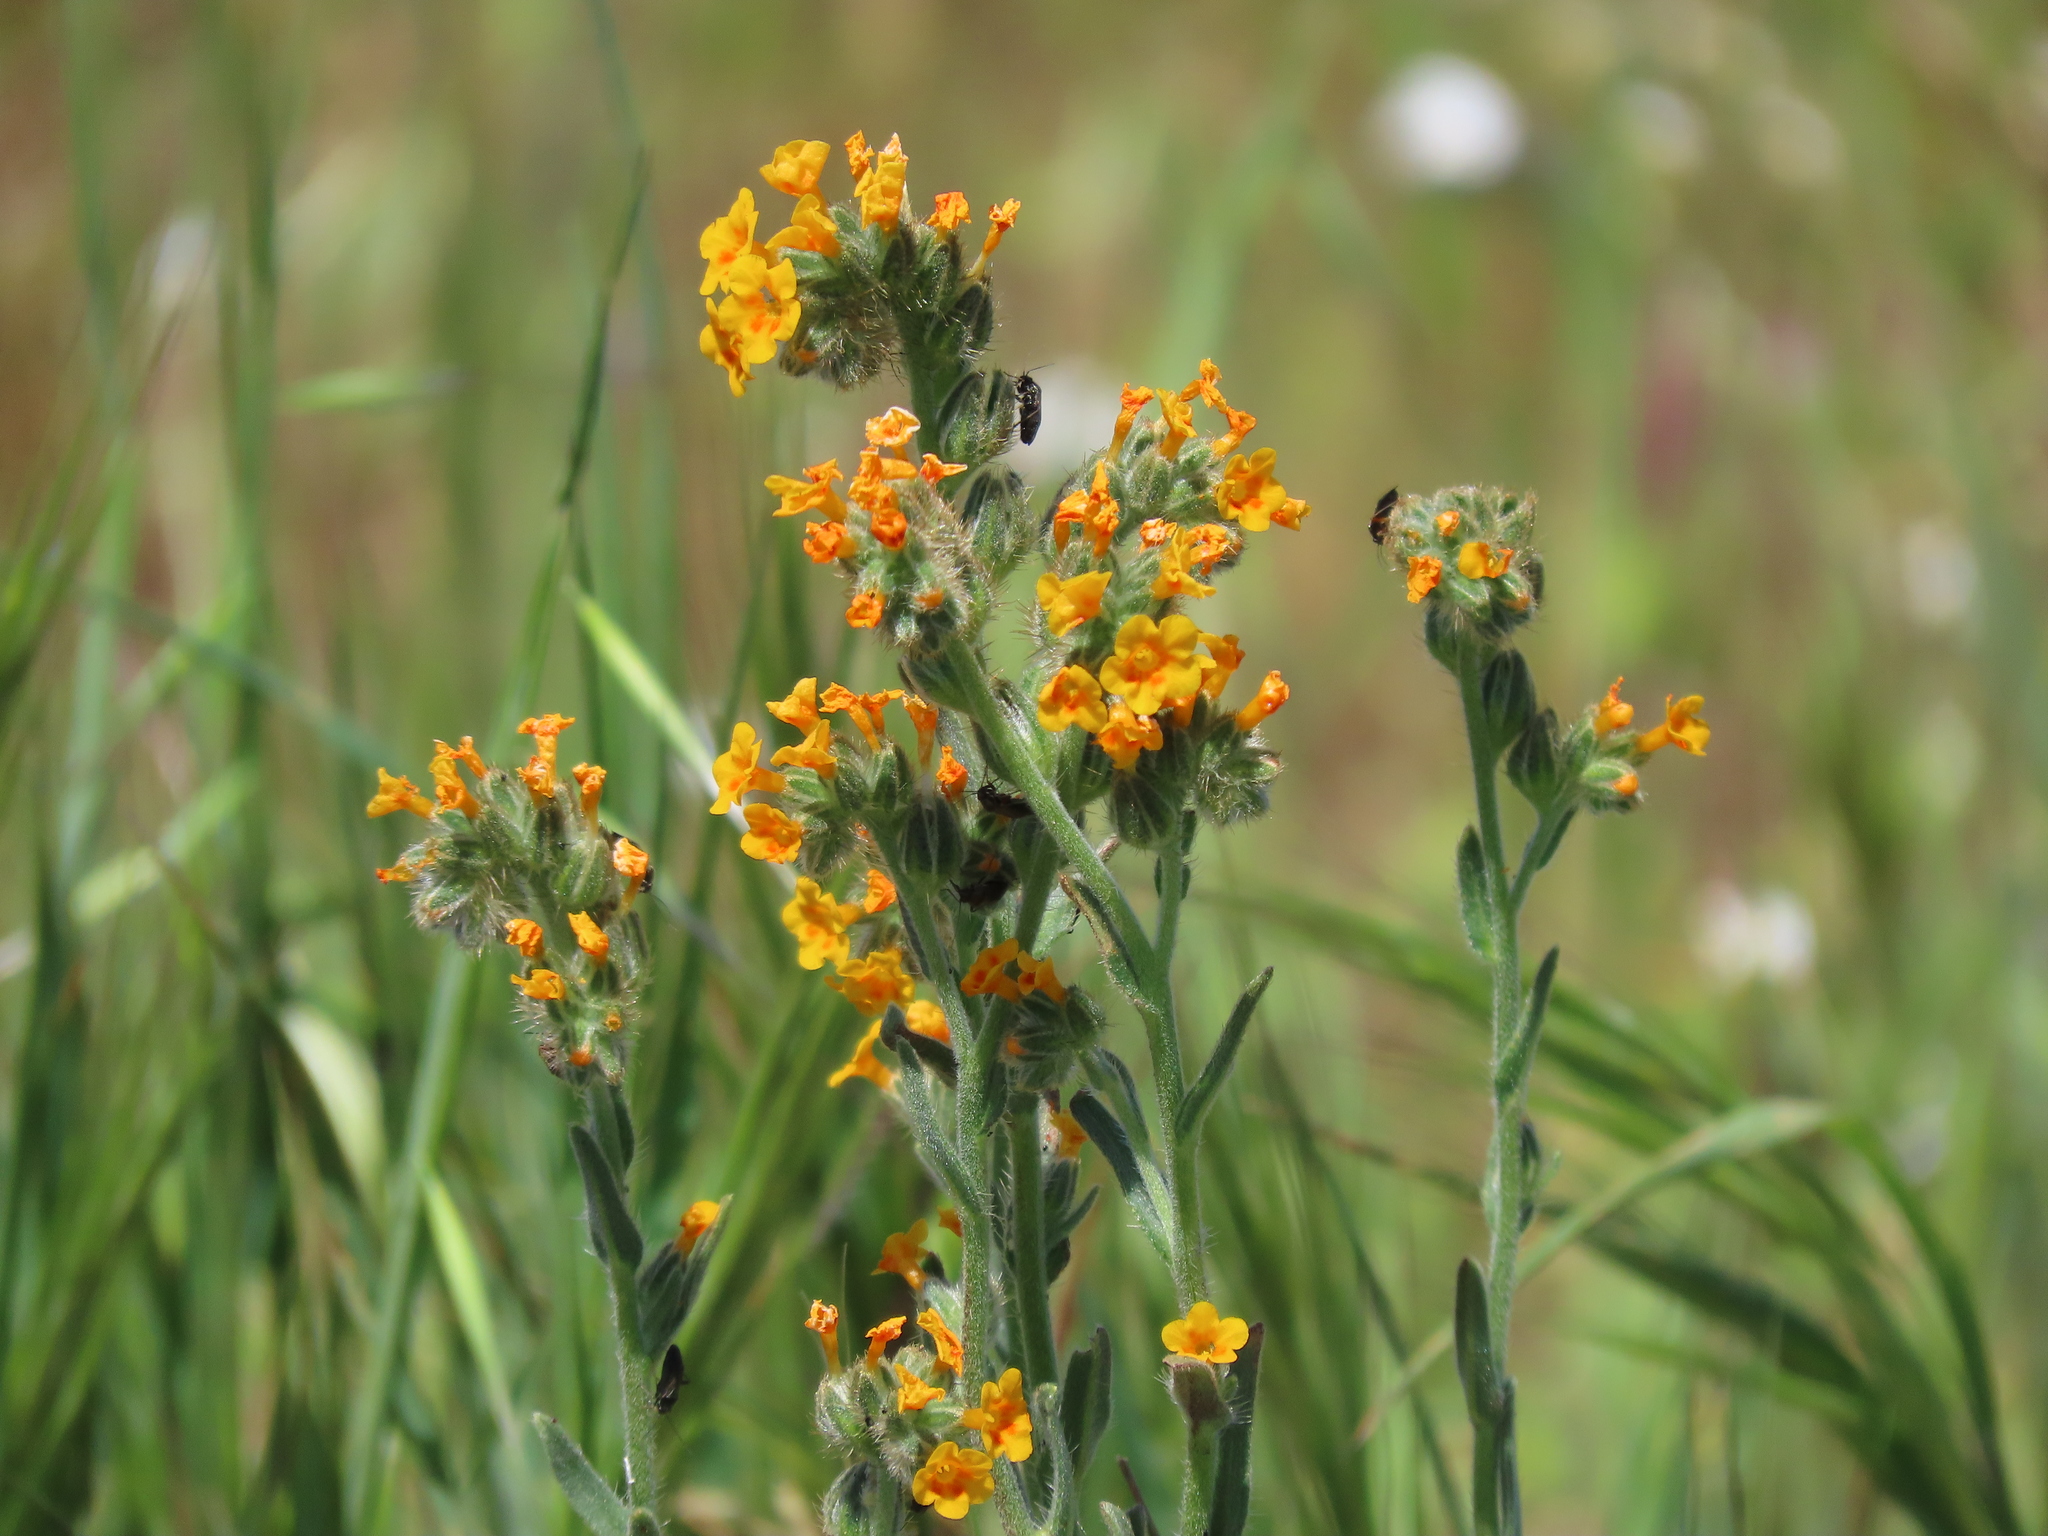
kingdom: Plantae
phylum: Tracheophyta
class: Magnoliopsida
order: Boraginales
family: Boraginaceae
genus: Amsinckia
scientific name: Amsinckia menziesii
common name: Menzies' fiddleneck
